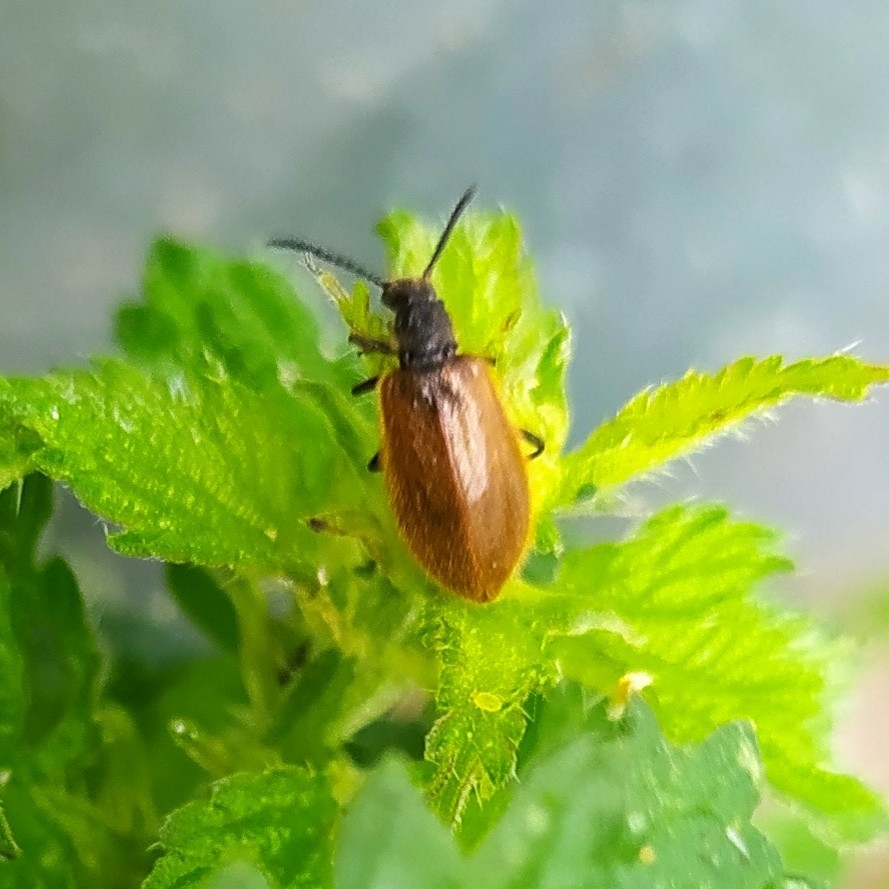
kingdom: Animalia
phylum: Arthropoda
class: Insecta
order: Coleoptera
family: Tenebrionidae
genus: Lagria
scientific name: Lagria hirta
